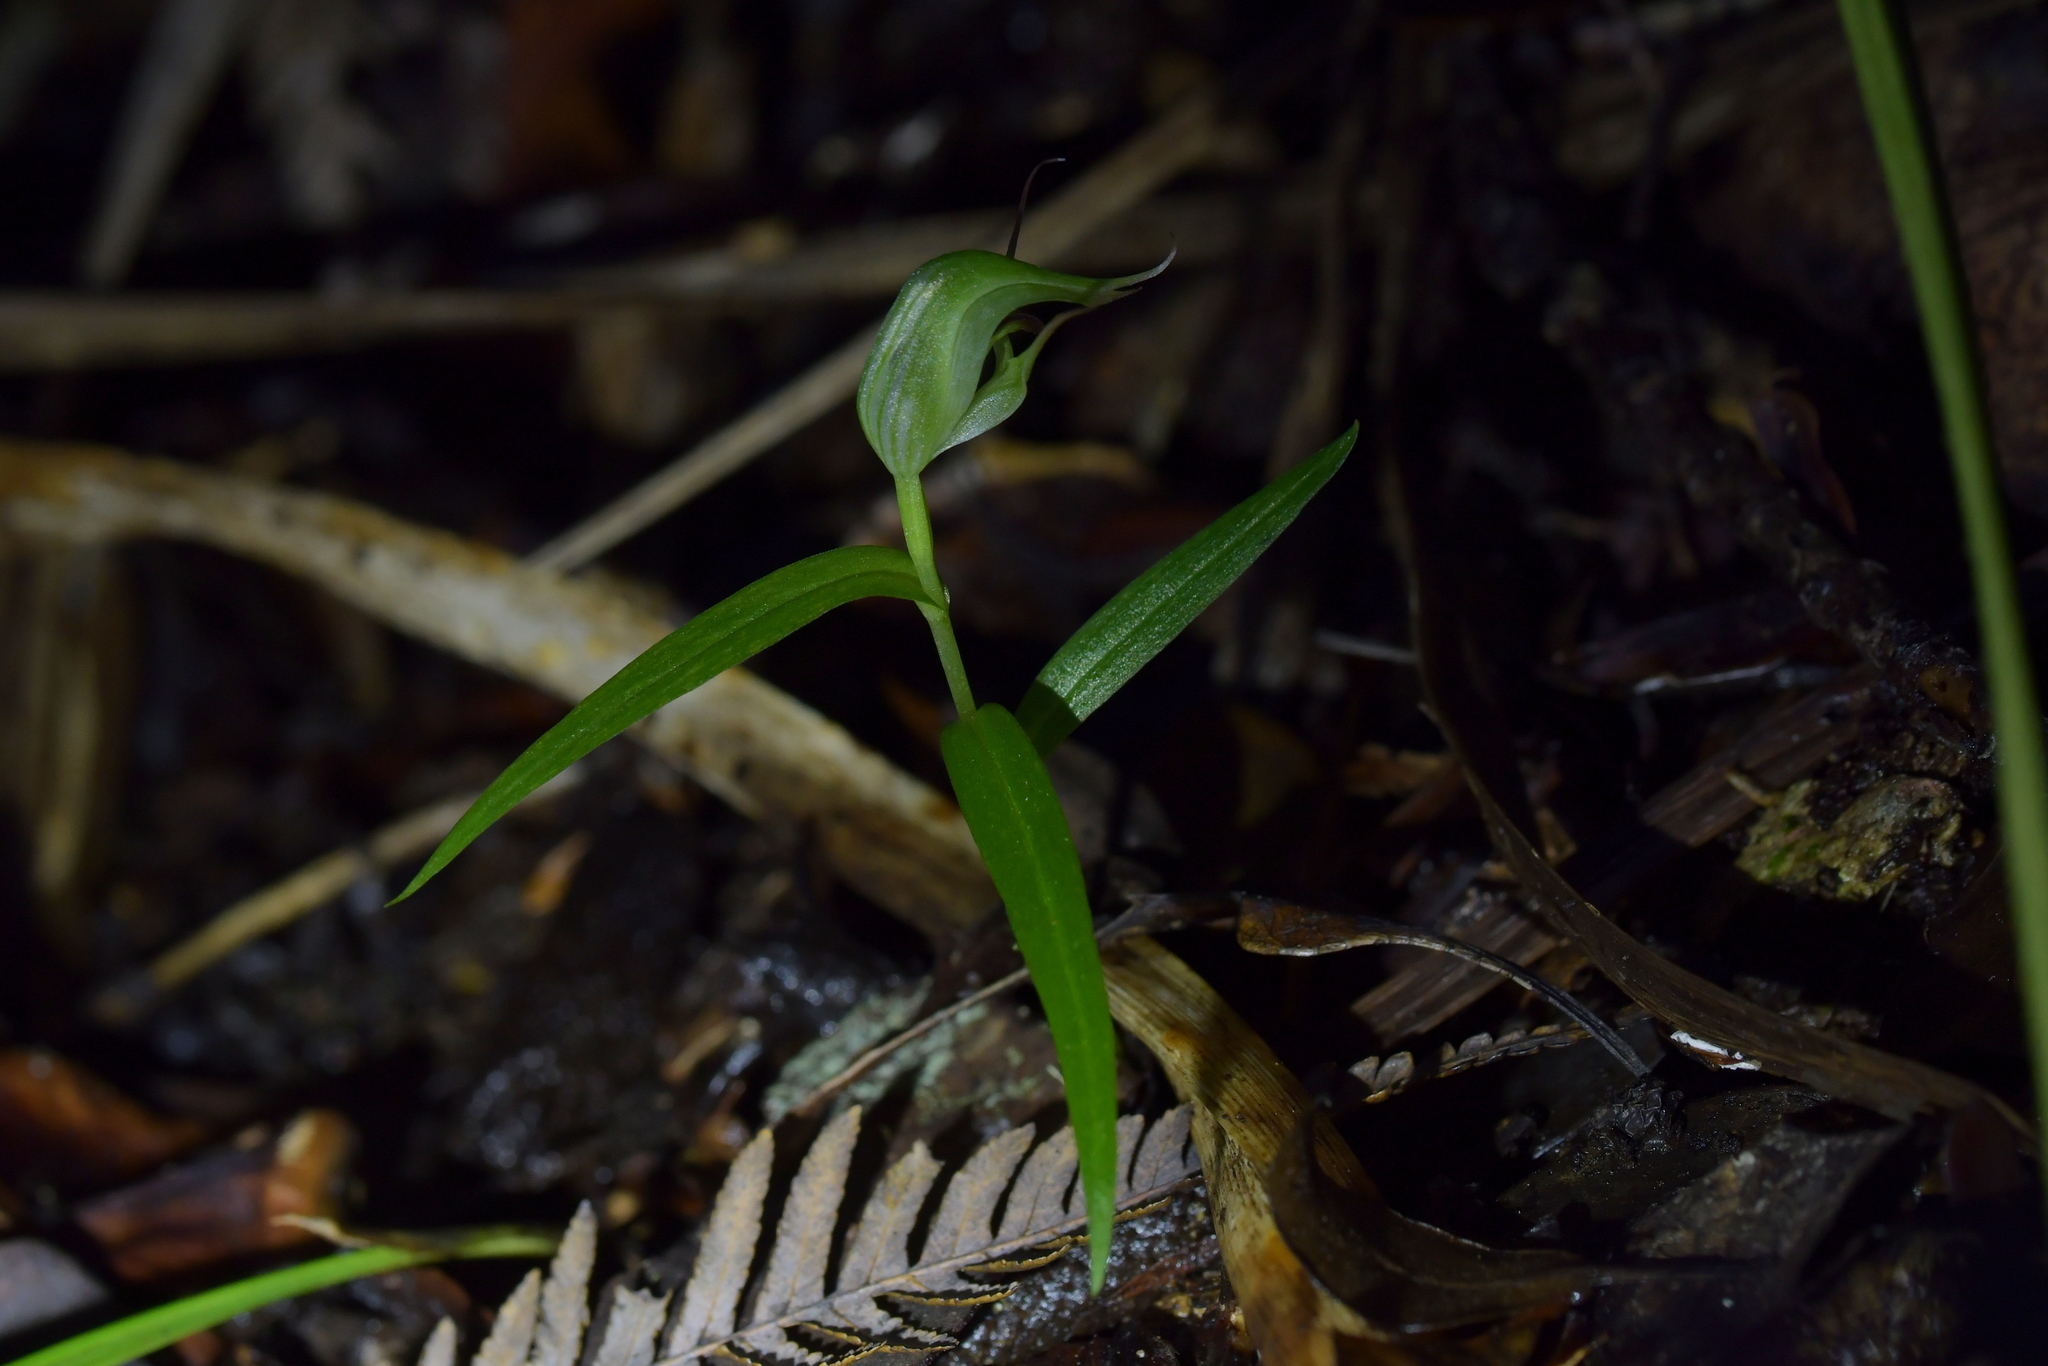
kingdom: Plantae
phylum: Tracheophyta
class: Liliopsida
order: Asparagales
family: Orchidaceae
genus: Pterostylis
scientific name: Pterostylis agathicola
